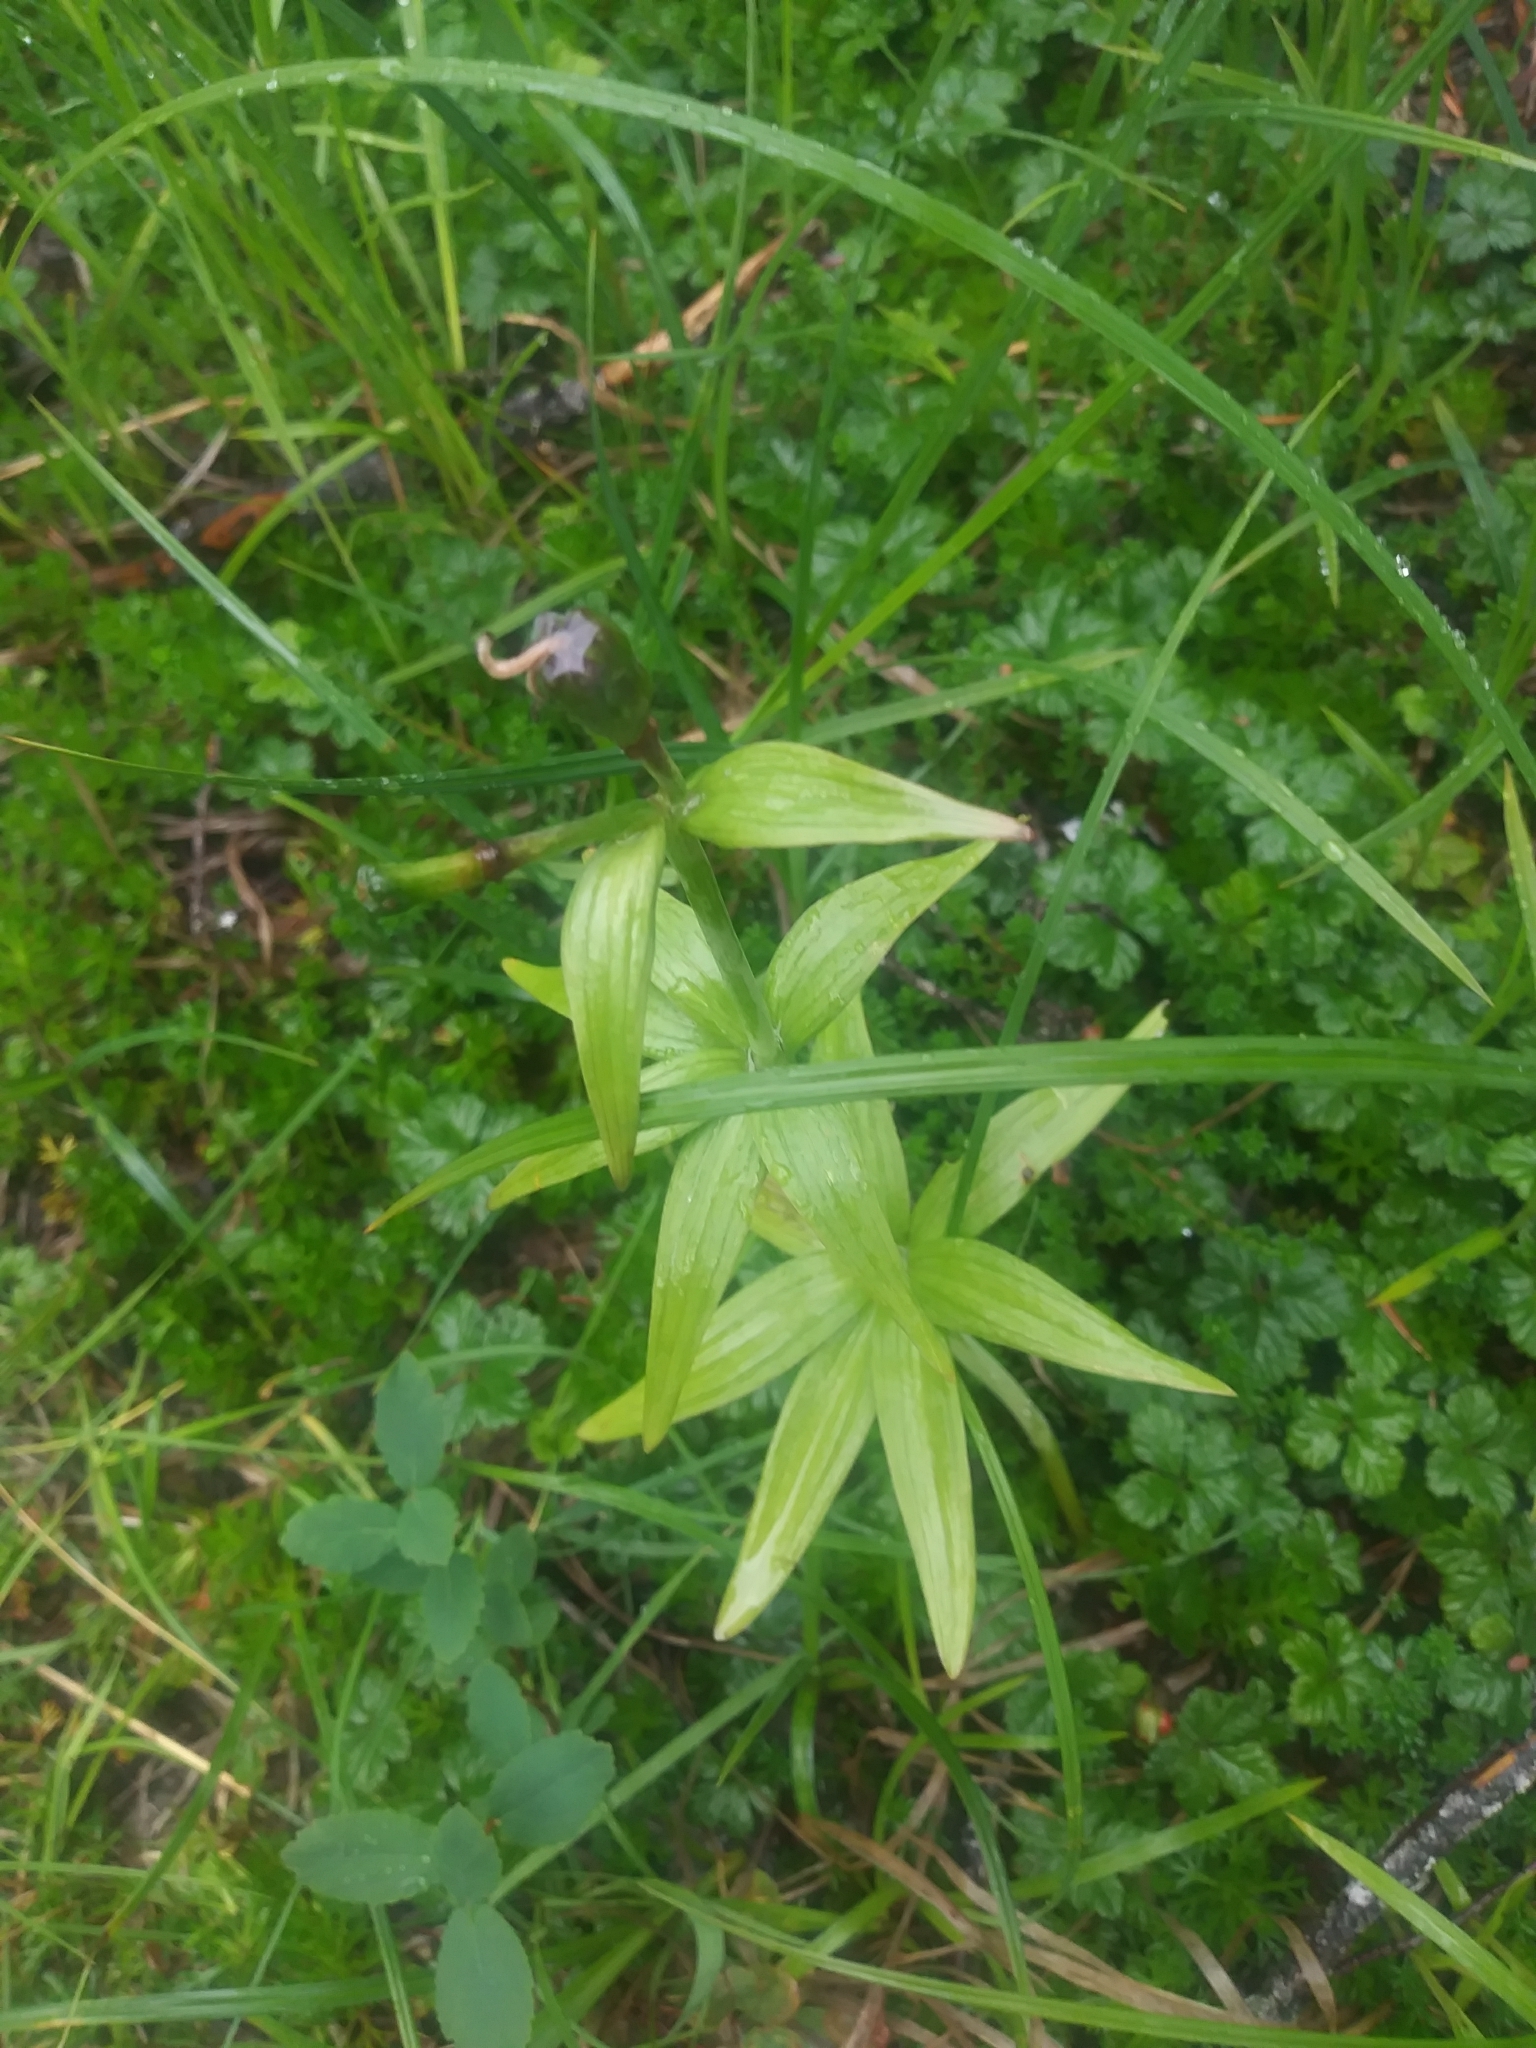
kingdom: Plantae
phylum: Tracheophyta
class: Liliopsida
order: Liliales
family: Liliaceae
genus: Fritillaria
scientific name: Fritillaria camschatcensis
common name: Kamchatka fritillary
